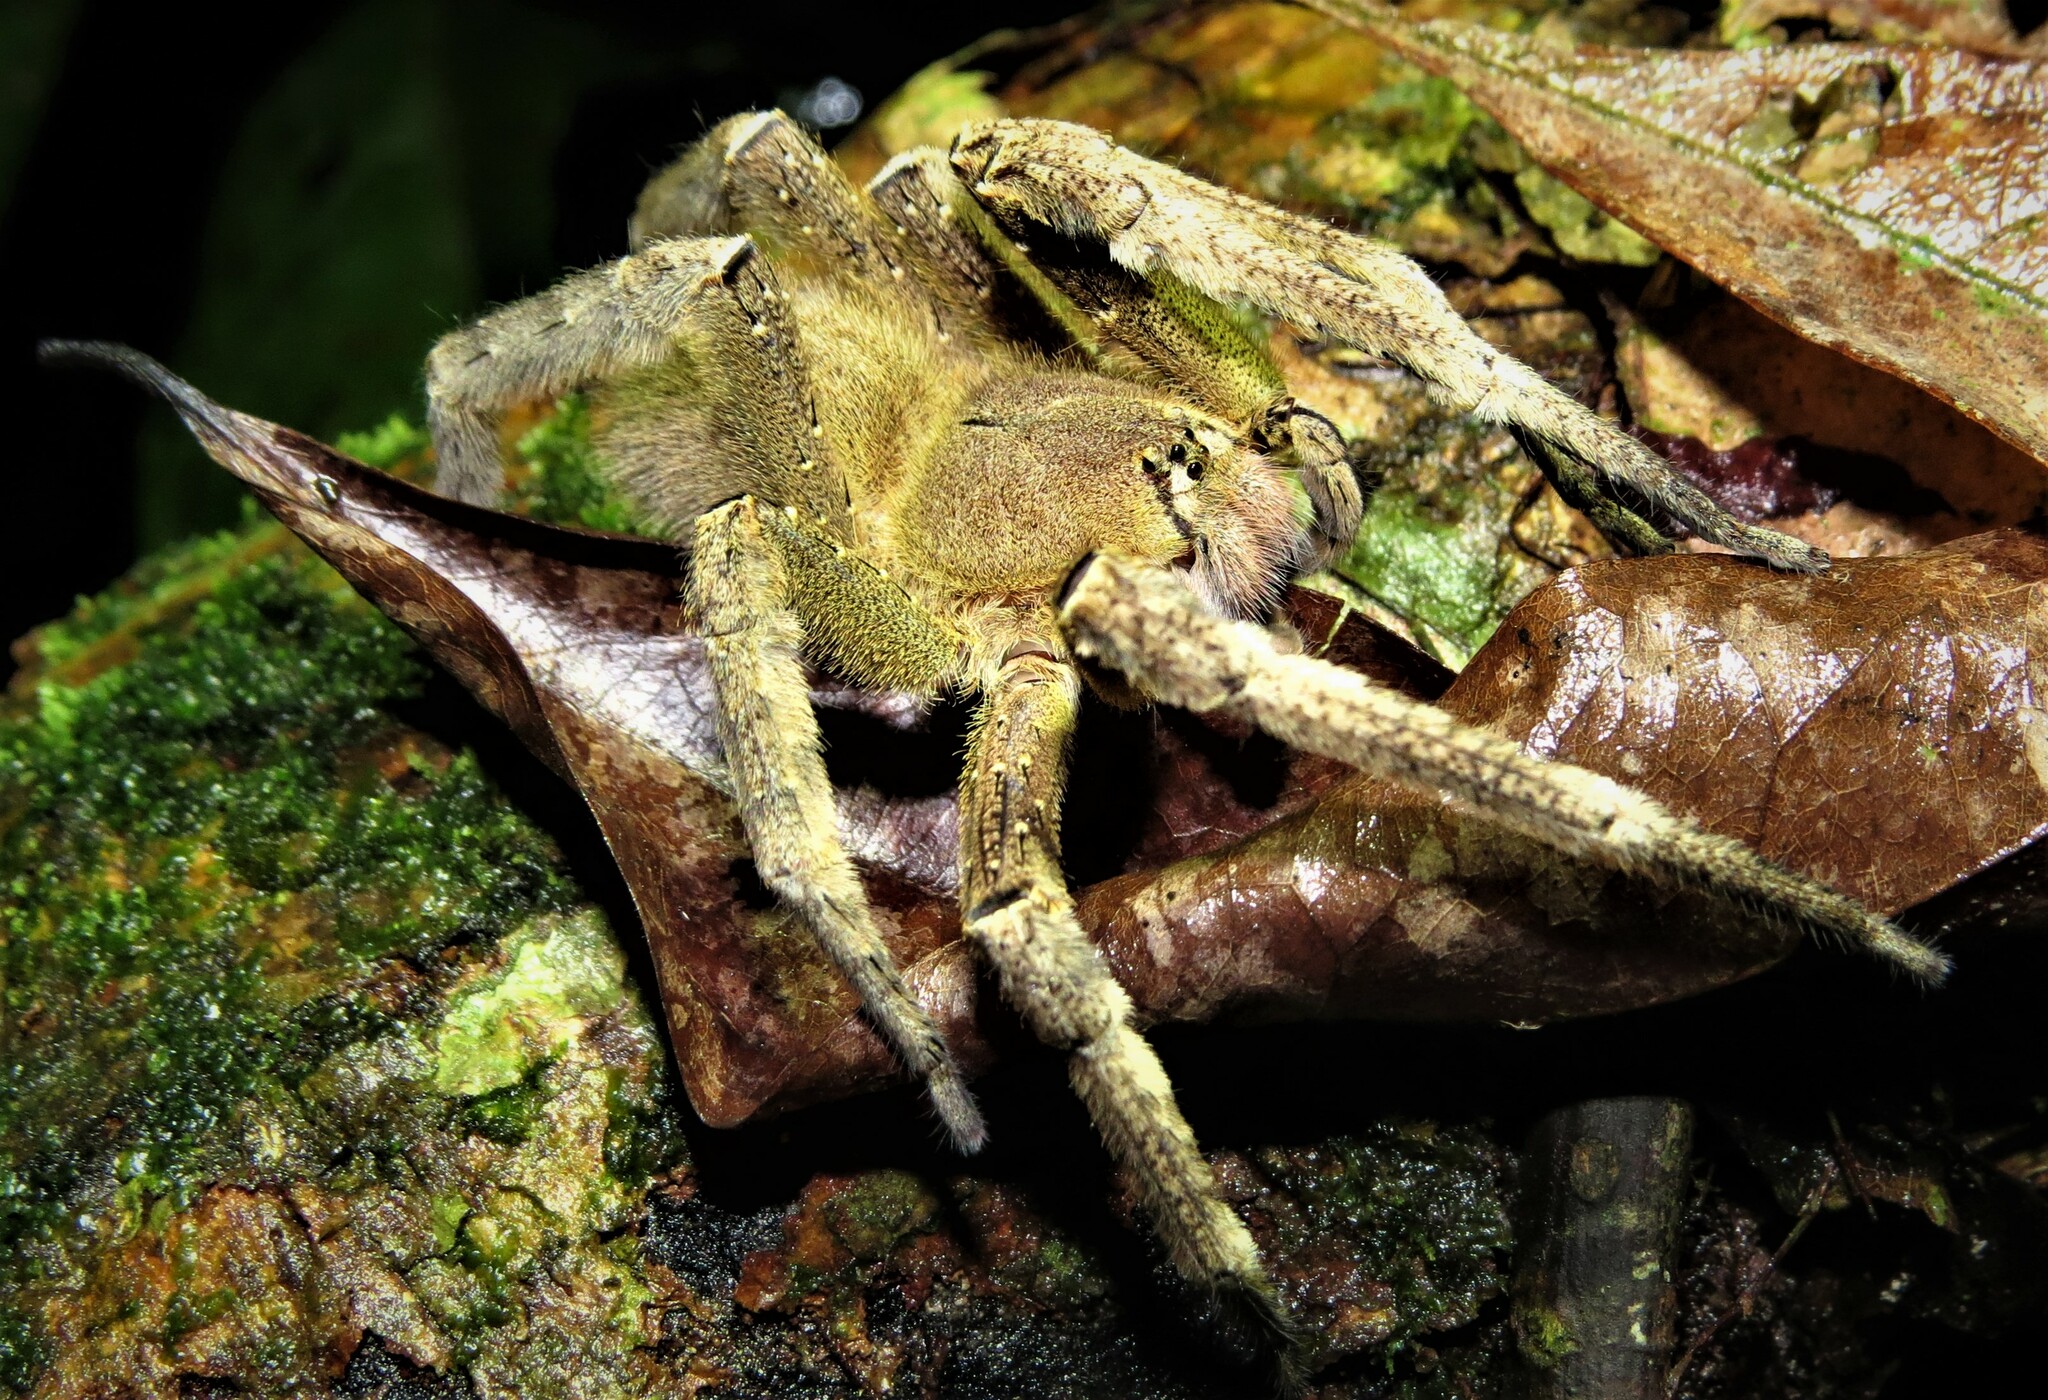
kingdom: Animalia
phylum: Arthropoda
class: Arachnida
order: Araneae
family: Ctenidae
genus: Phoneutria
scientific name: Phoneutria fera
